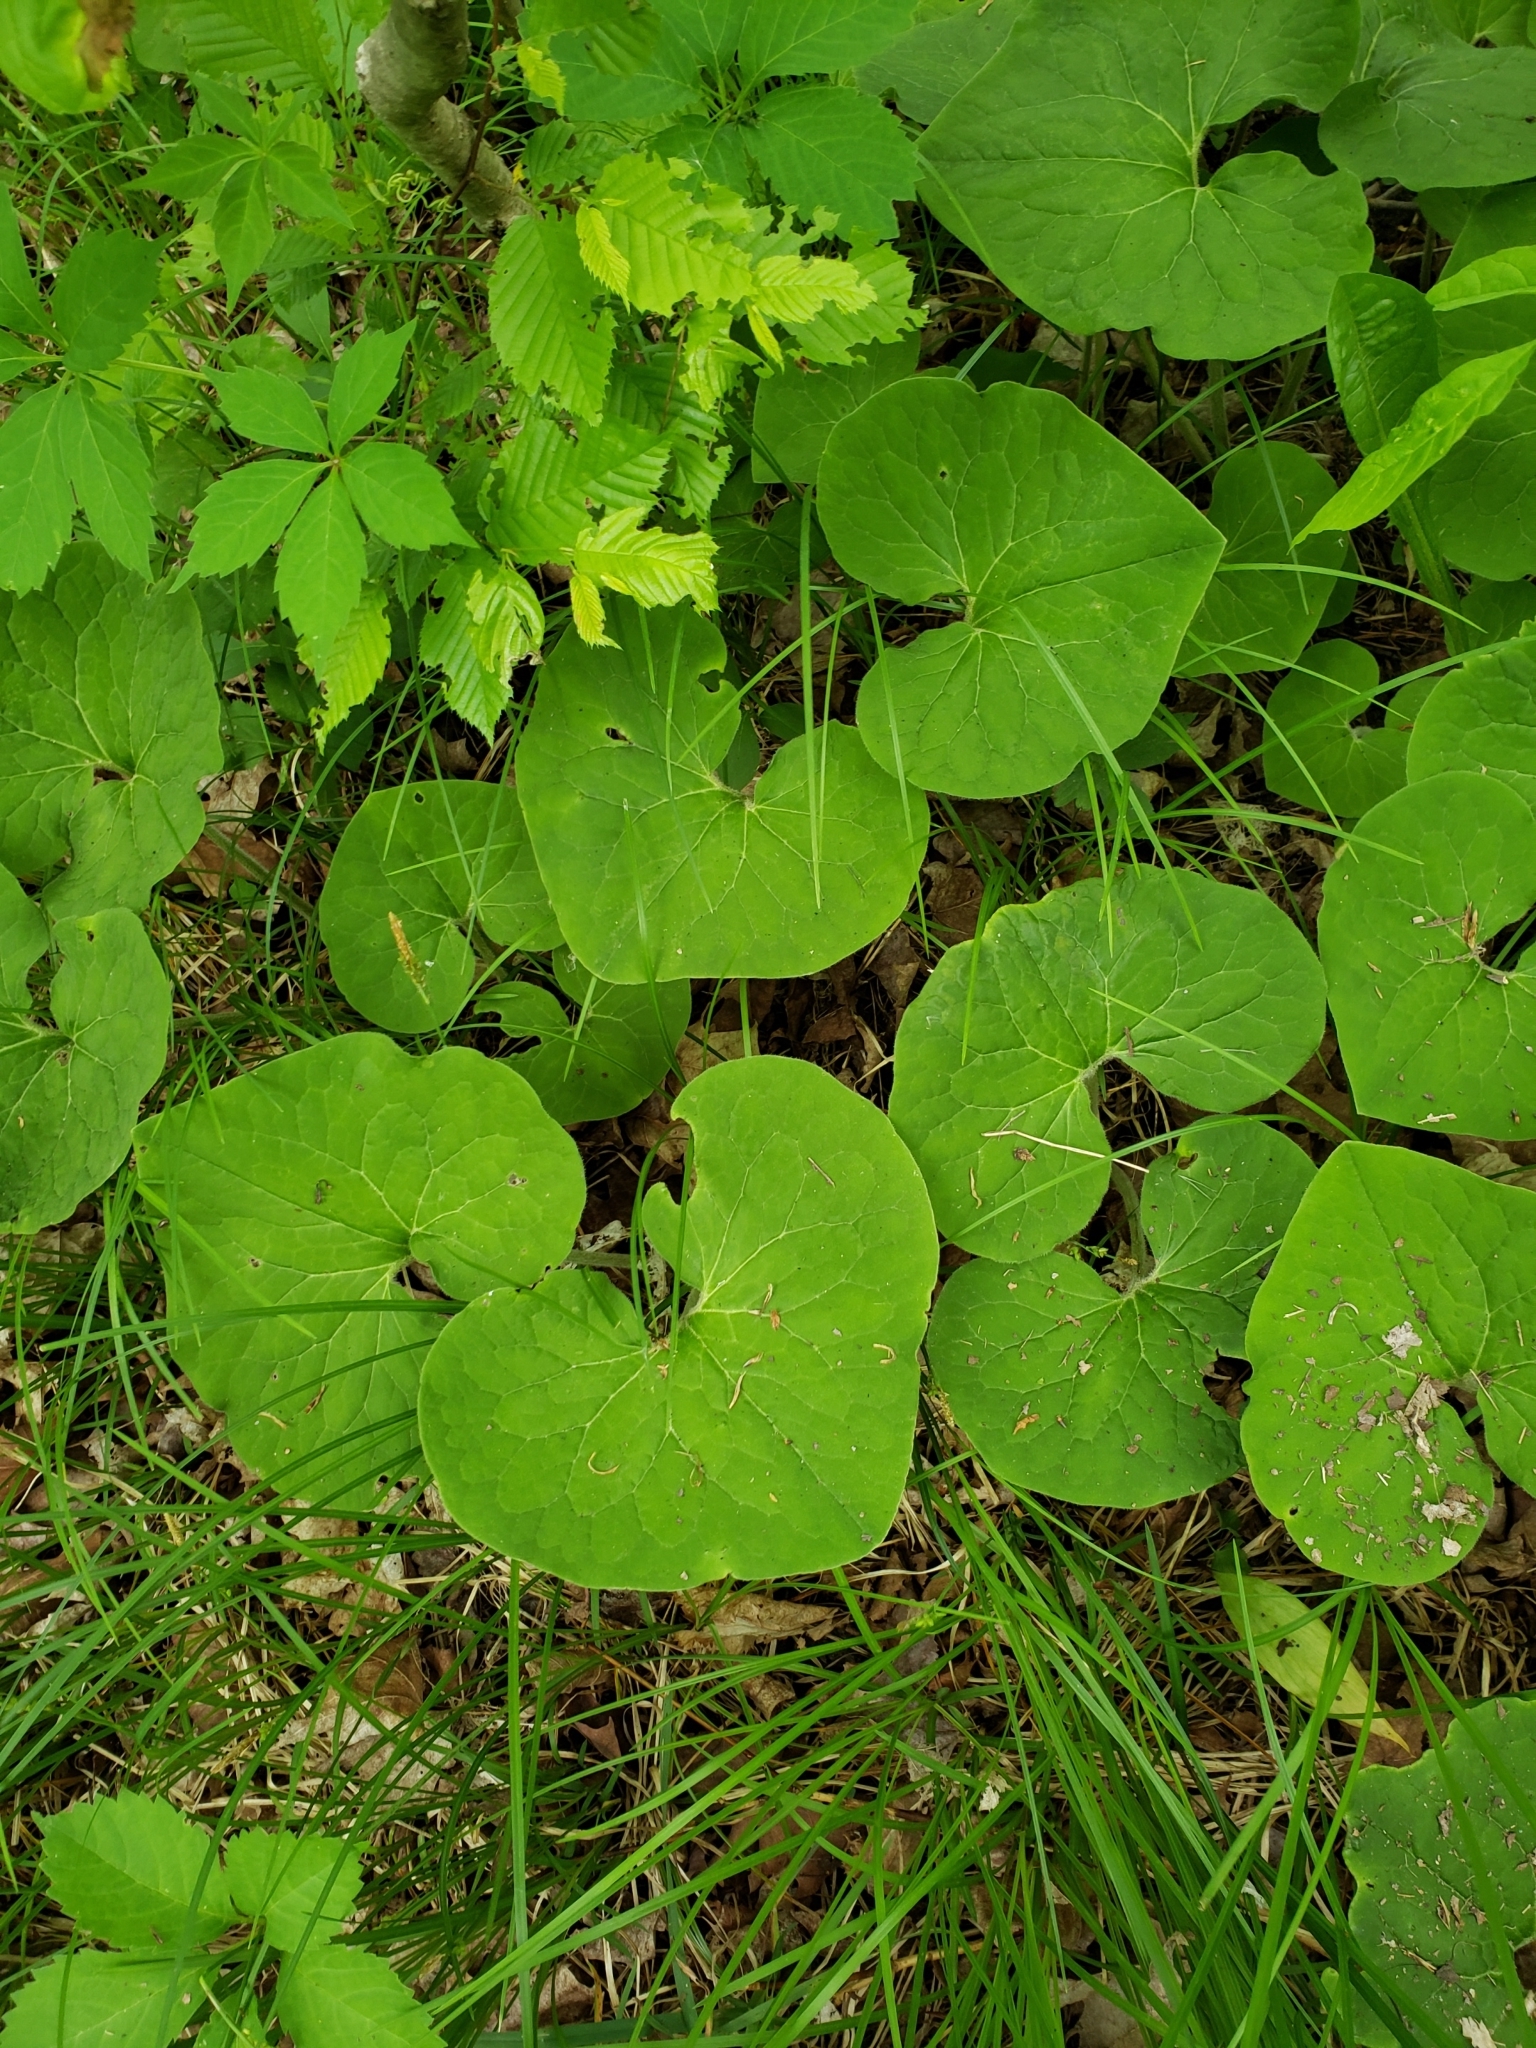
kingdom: Plantae
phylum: Tracheophyta
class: Magnoliopsida
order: Piperales
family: Aristolochiaceae
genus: Asarum
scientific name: Asarum canadense
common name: Wild ginger
